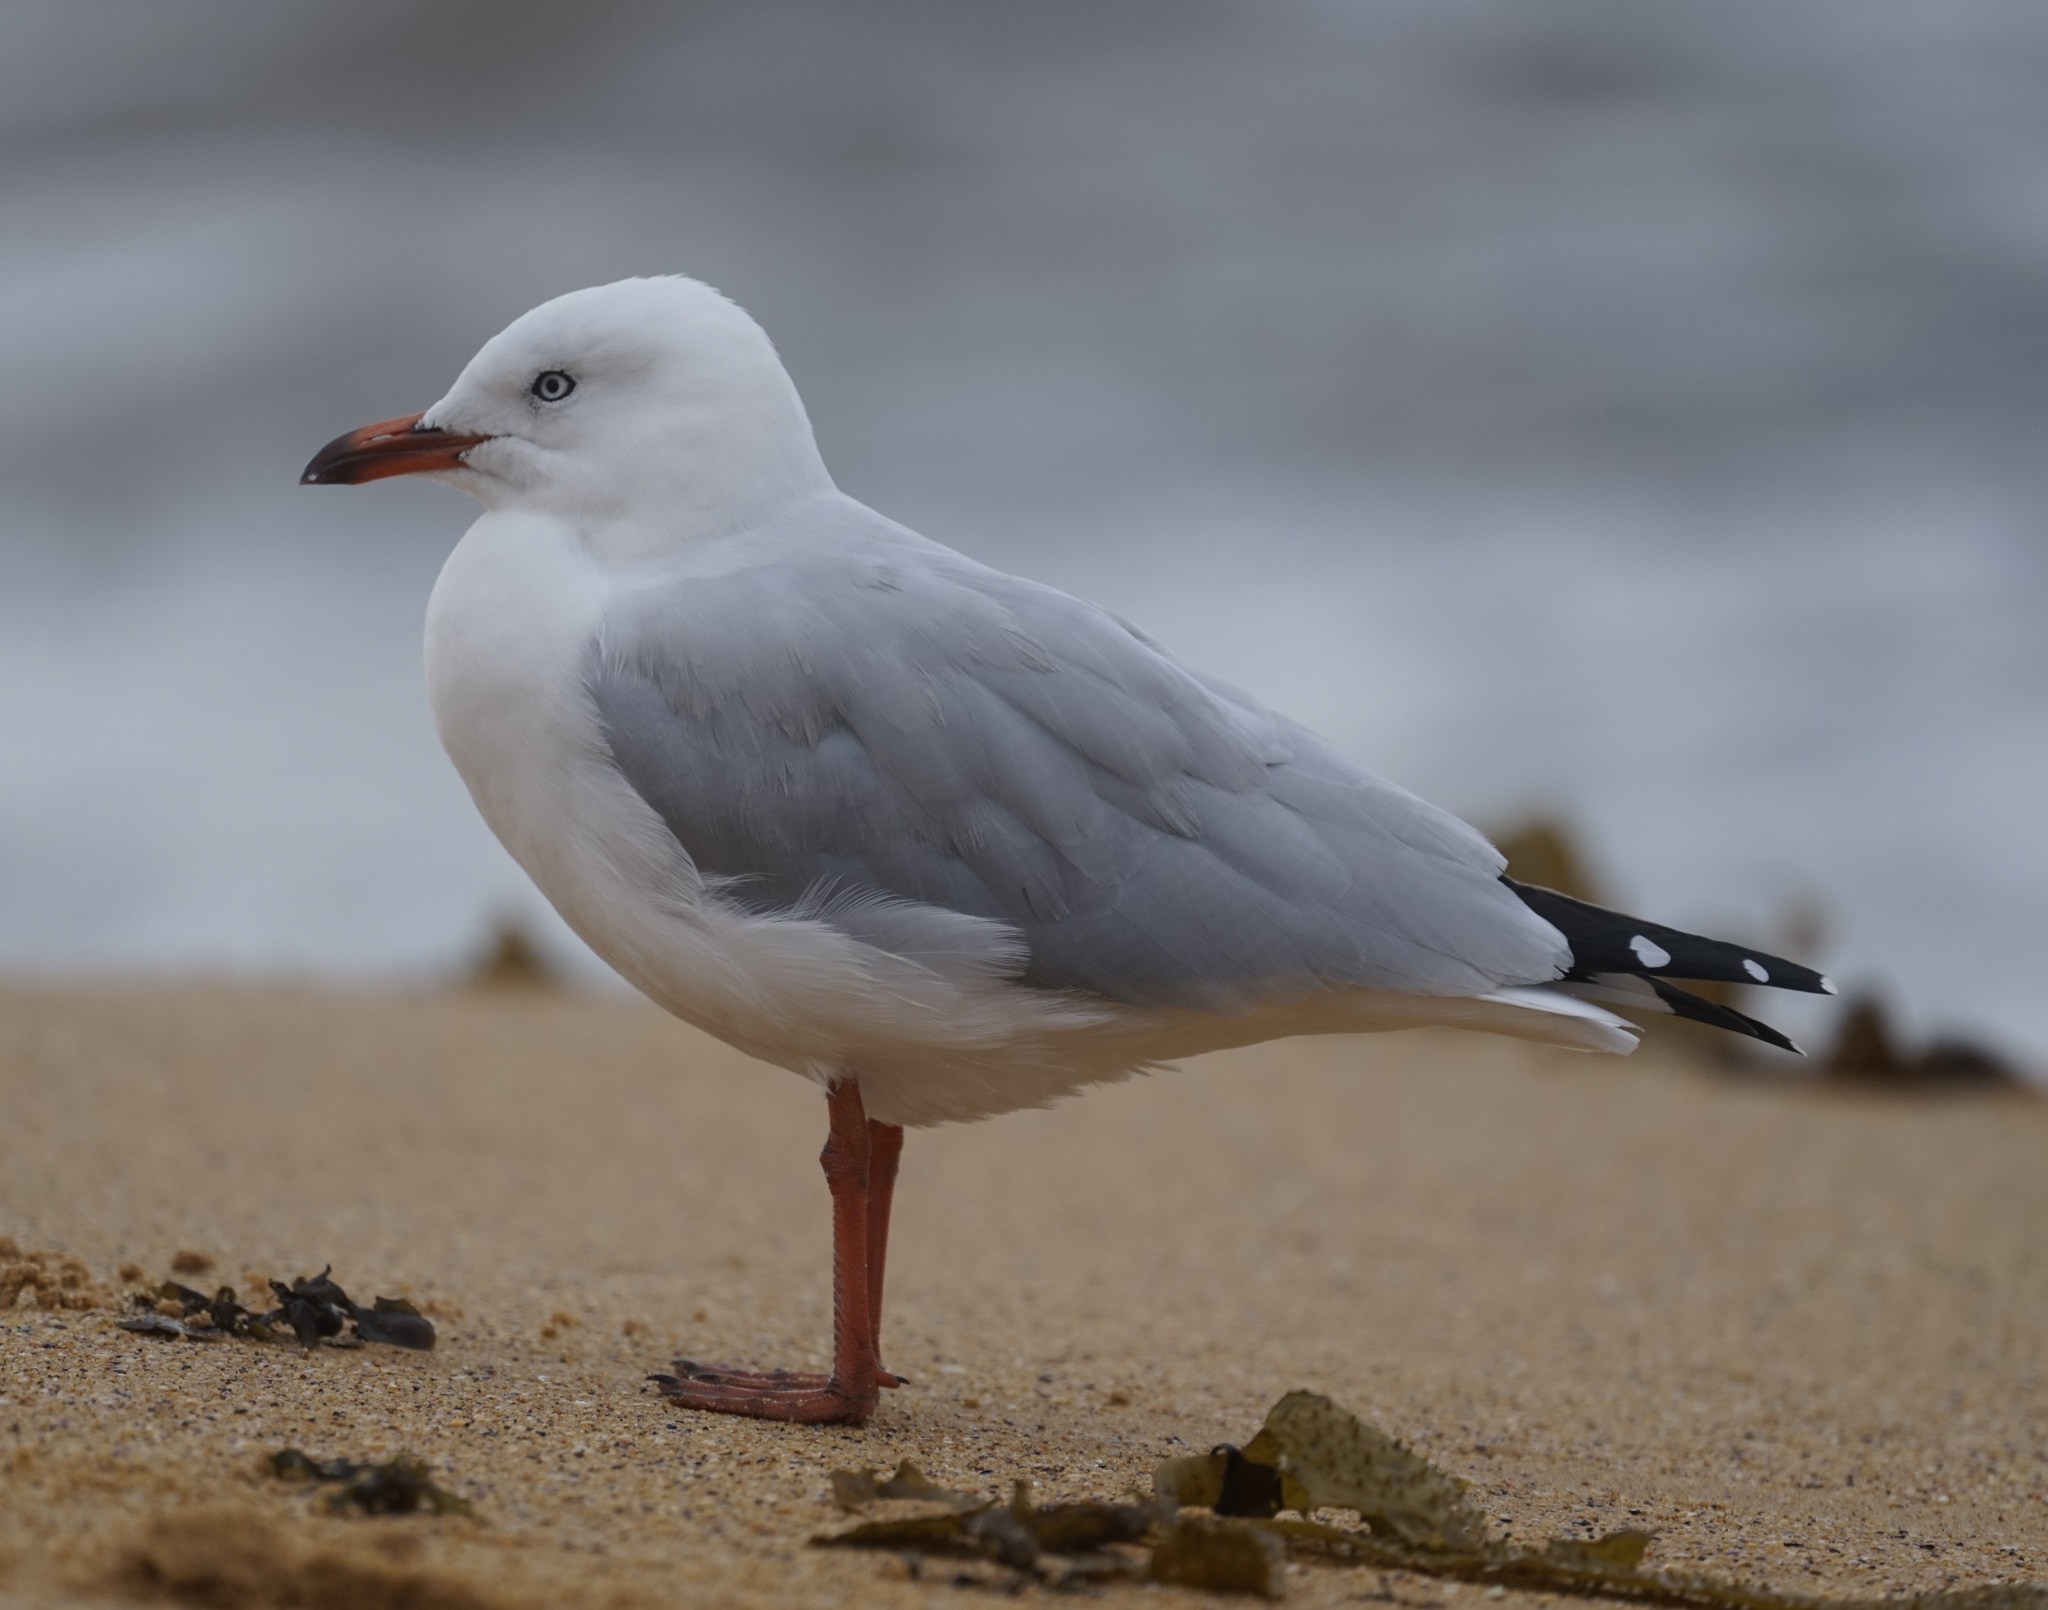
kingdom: Animalia
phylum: Chordata
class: Aves
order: Charadriiformes
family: Laridae
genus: Chroicocephalus
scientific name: Chroicocephalus novaehollandiae
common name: Silver gull
